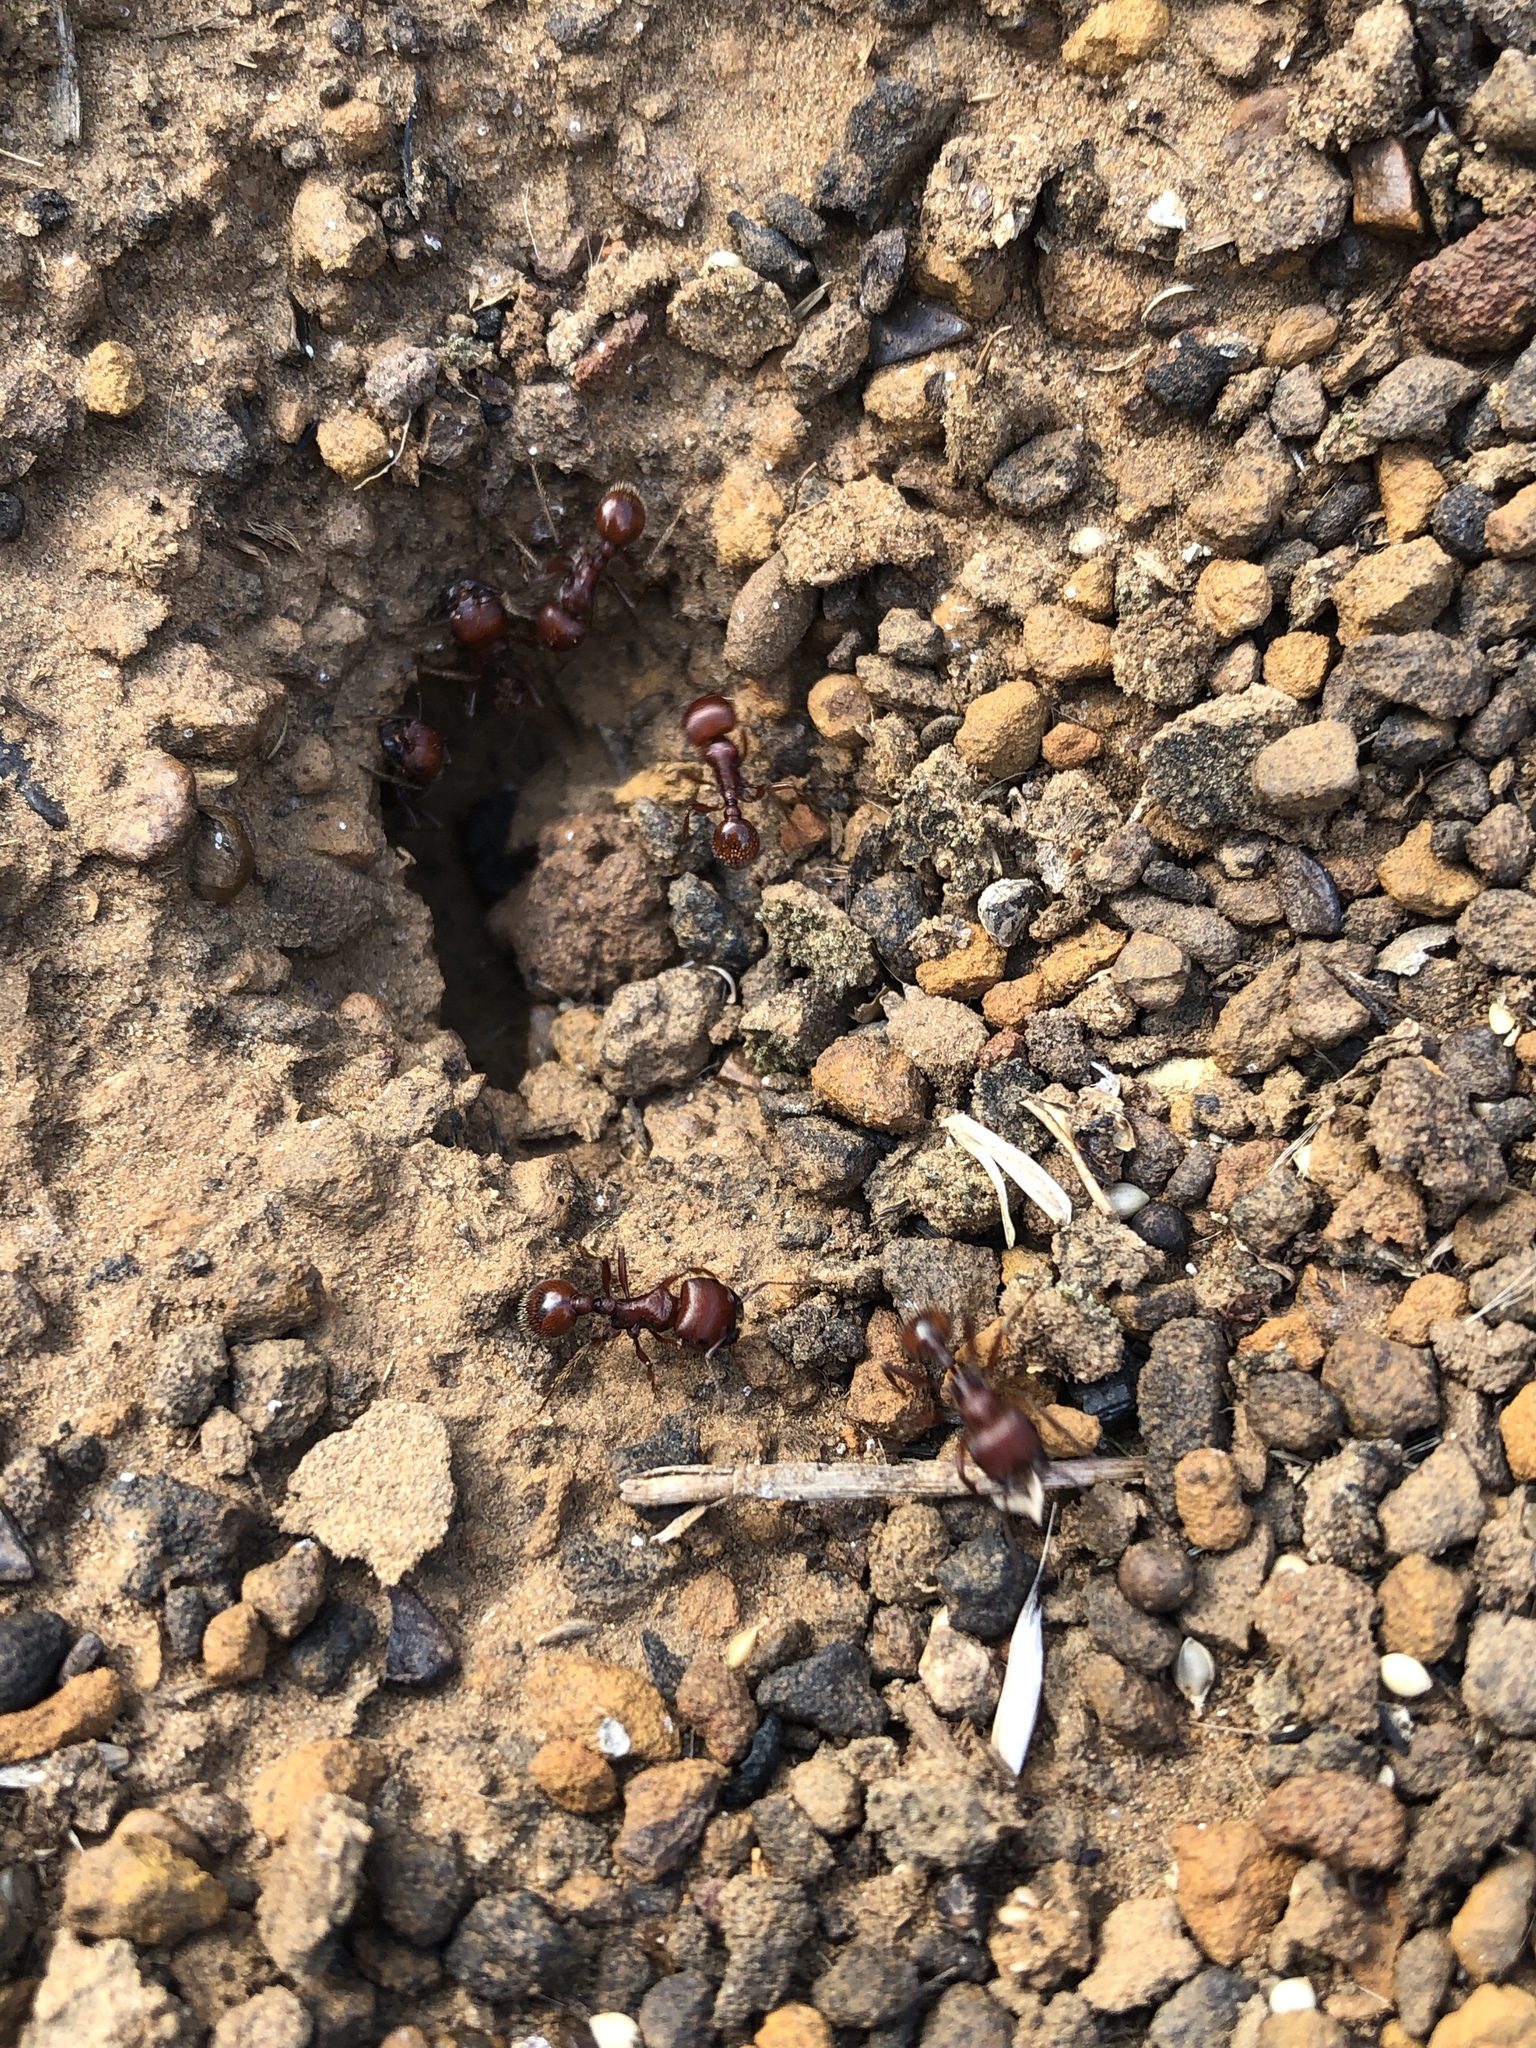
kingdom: Animalia
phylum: Arthropoda
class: Insecta
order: Hymenoptera
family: Formicidae
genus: Pogonomyrmex
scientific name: Pogonomyrmex barbatus
